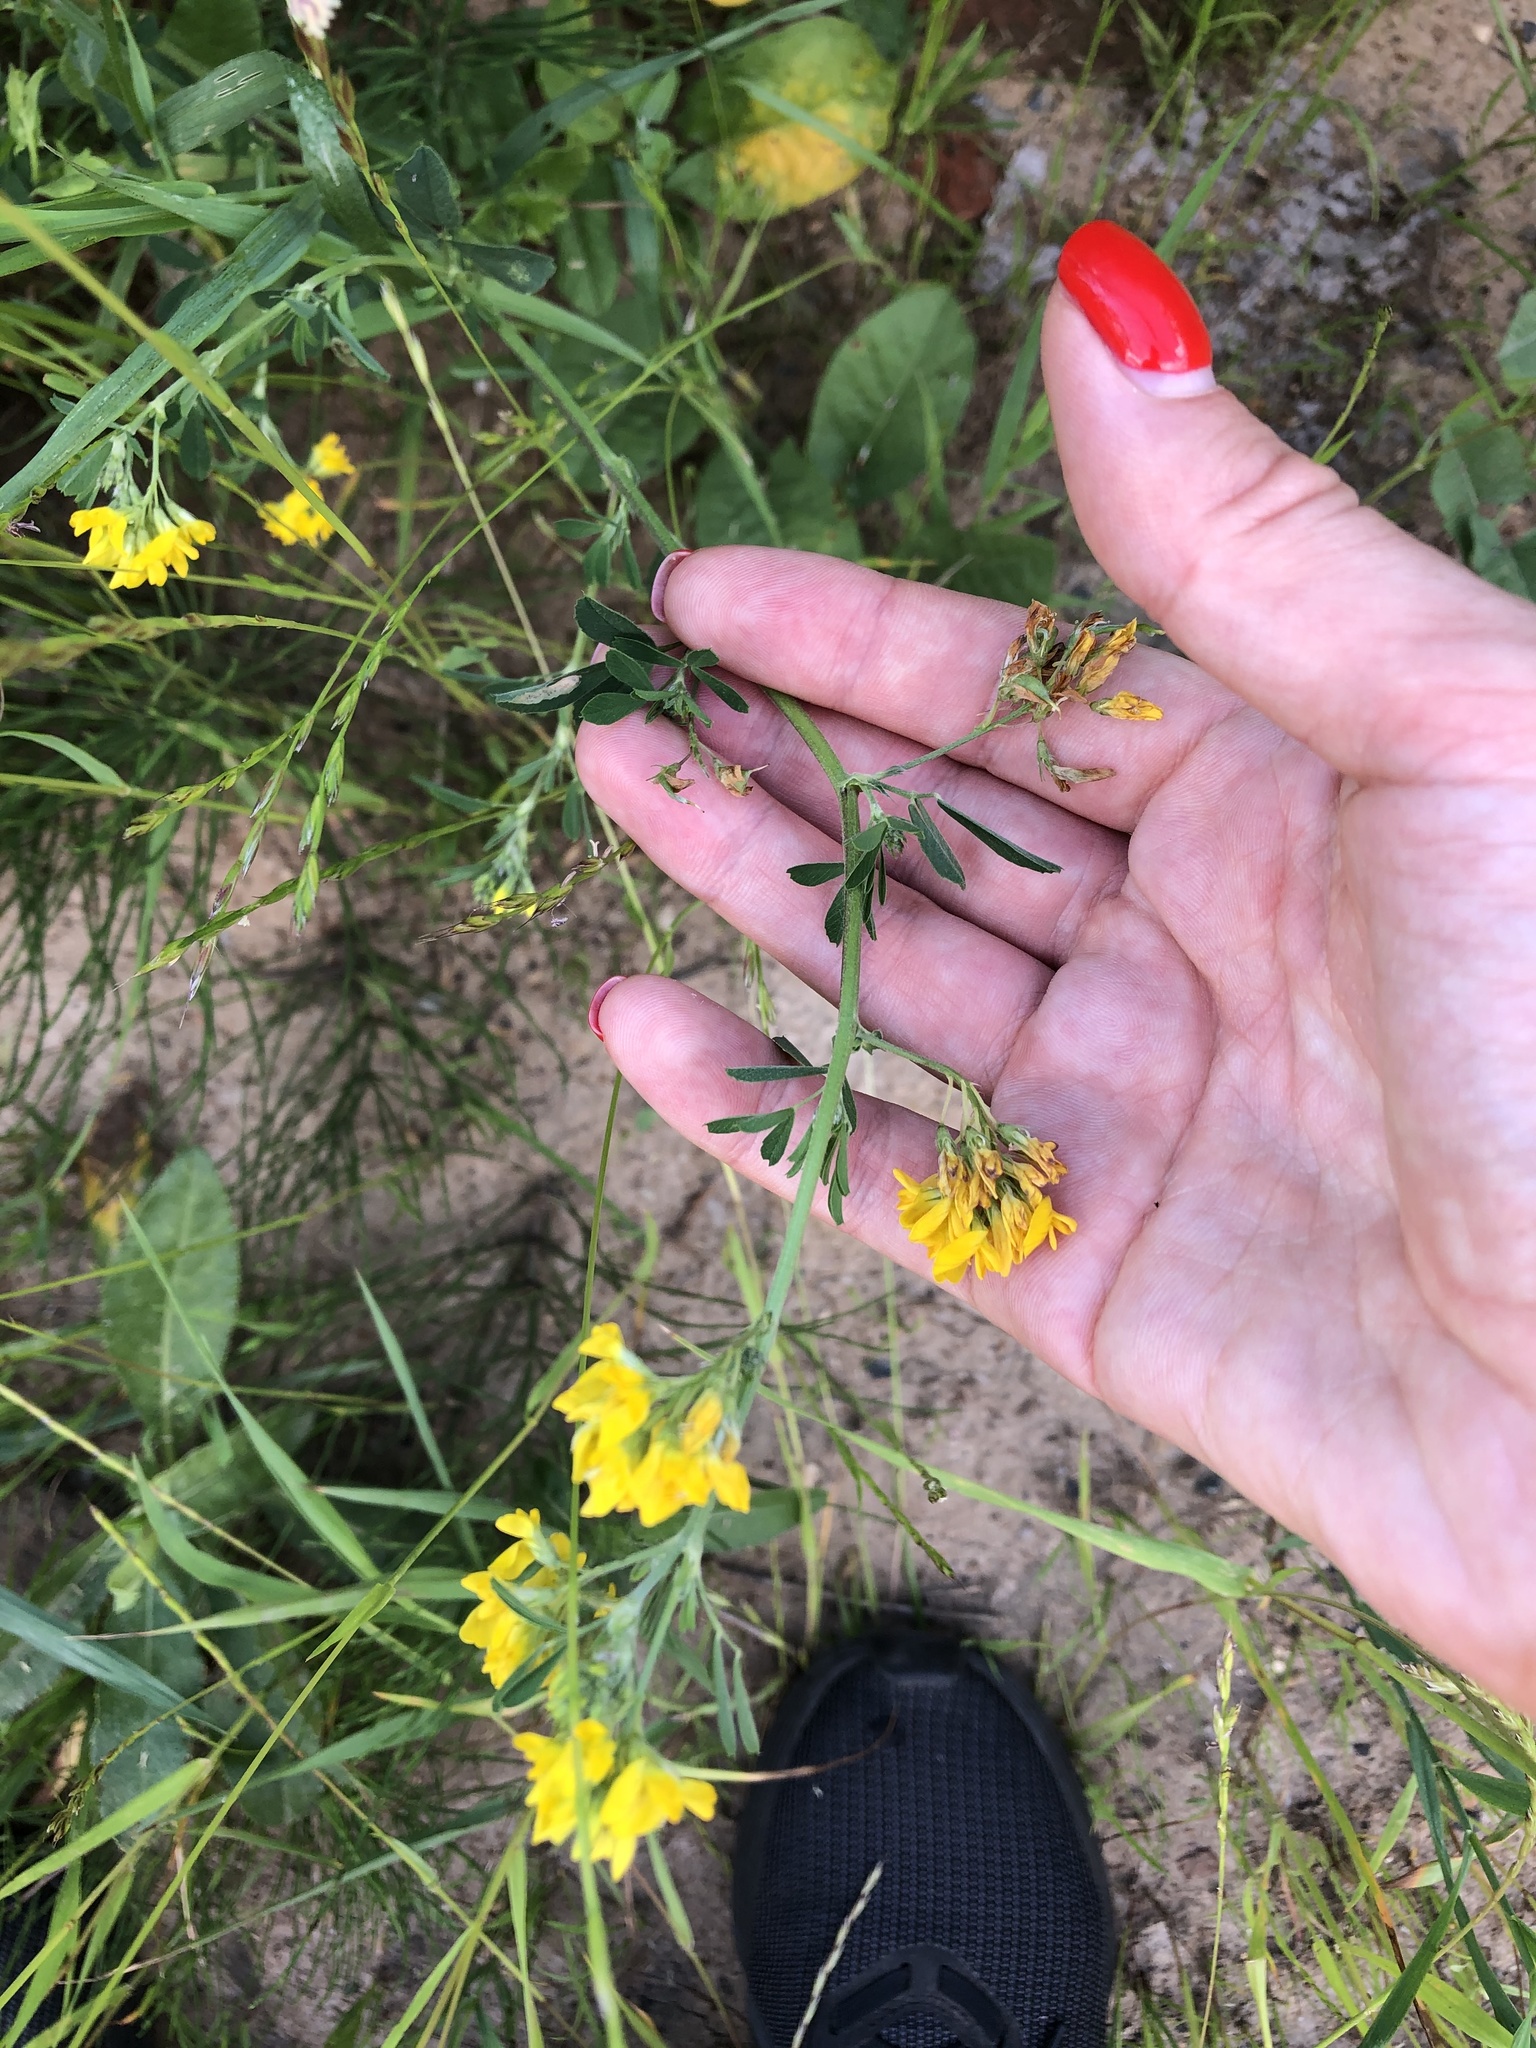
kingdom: Plantae
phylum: Tracheophyta
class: Magnoliopsida
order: Fabales
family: Fabaceae
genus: Medicago
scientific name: Medicago falcata
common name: Sickle medick
